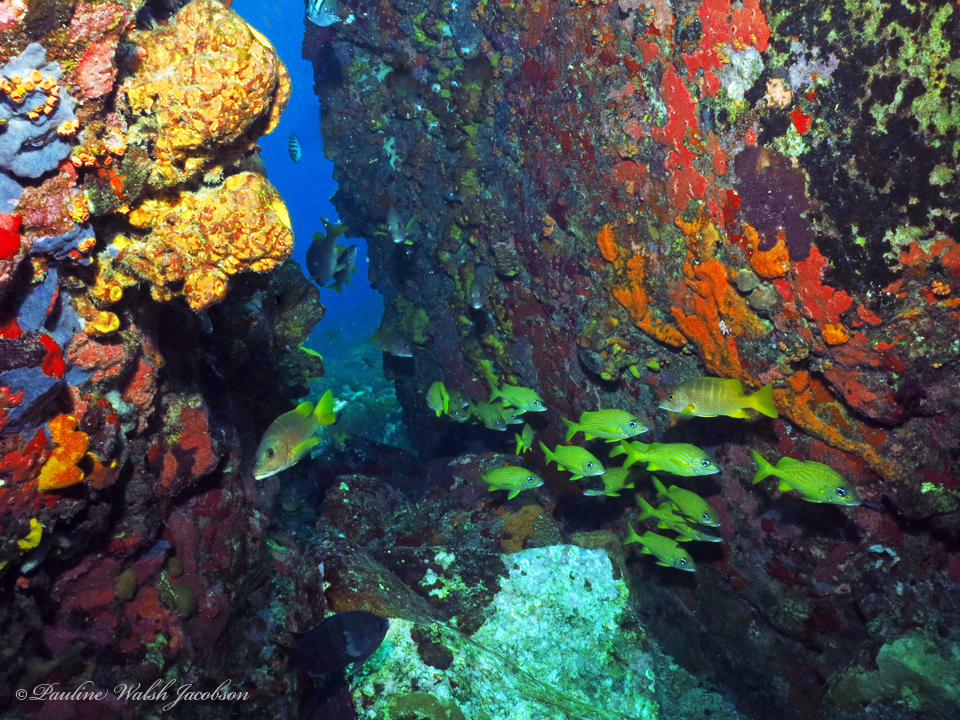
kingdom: Animalia
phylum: Chordata
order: Perciformes
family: Lutjanidae
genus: Lutjanus
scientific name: Lutjanus apodus
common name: Schoolmaster
